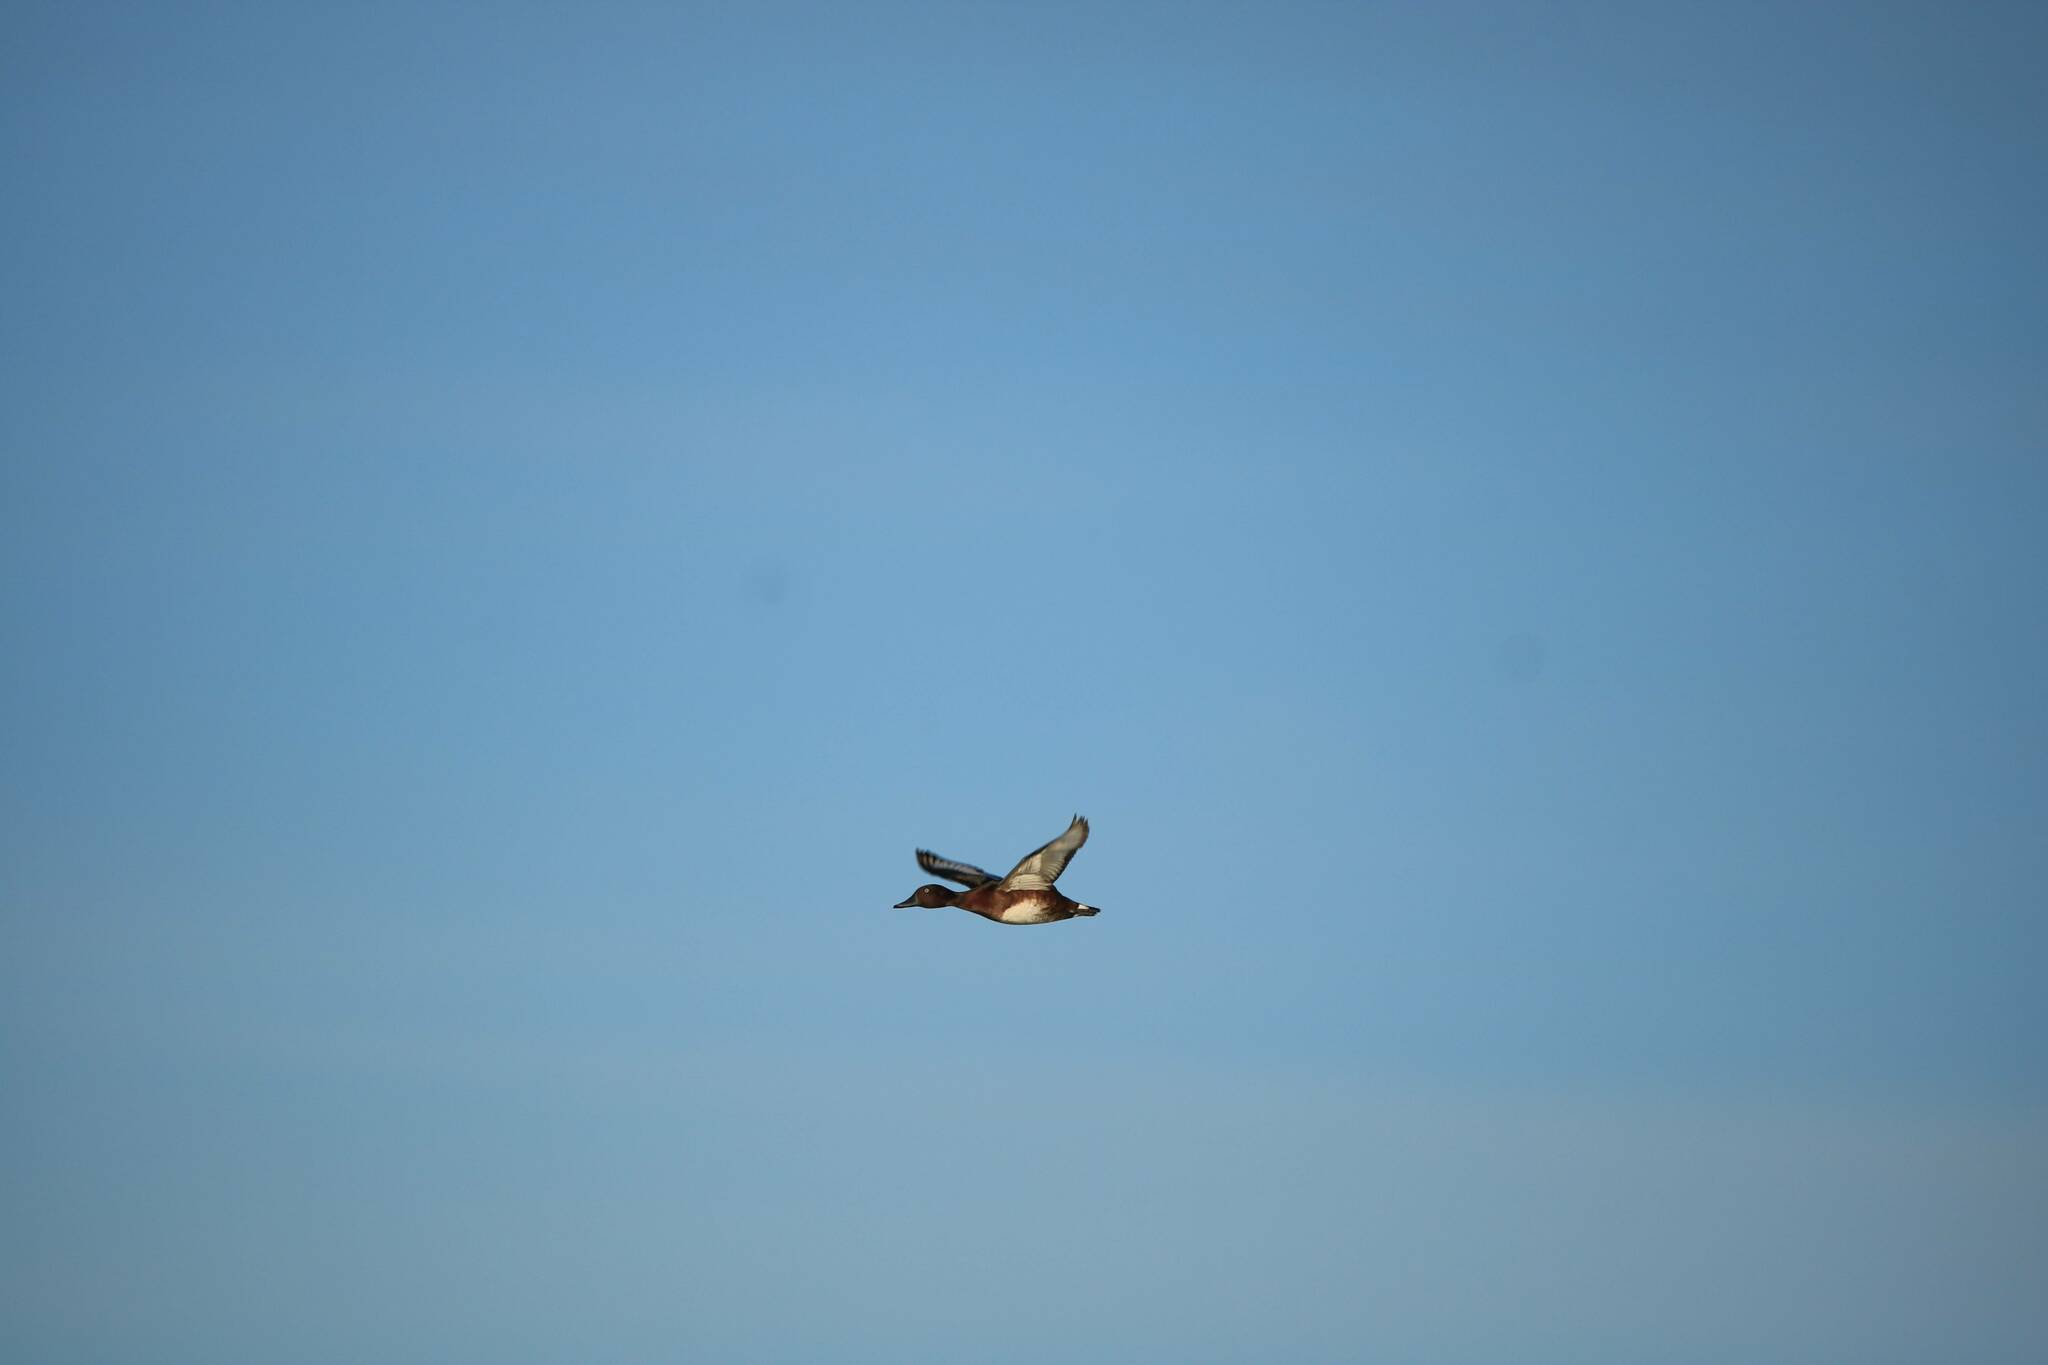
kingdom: Animalia
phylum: Chordata
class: Aves
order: Anseriformes
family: Anatidae
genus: Aythya
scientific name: Aythya nyroca
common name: Ferruginous duck
